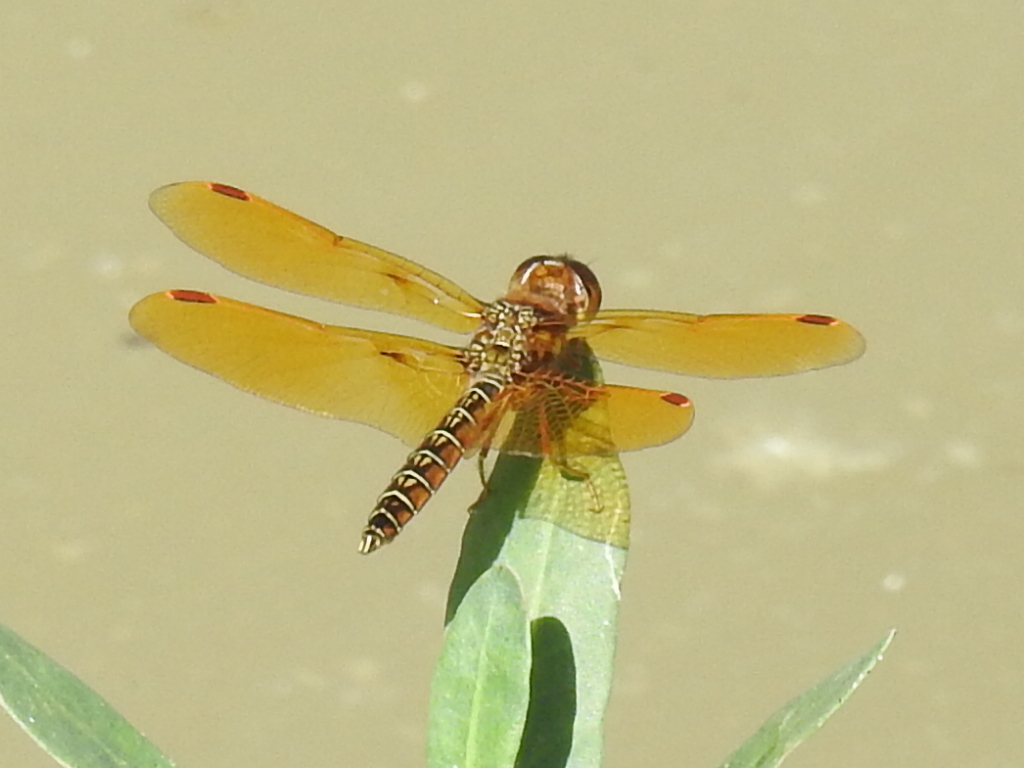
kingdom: Animalia
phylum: Arthropoda
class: Insecta
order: Odonata
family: Libellulidae
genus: Perithemis
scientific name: Perithemis tenera
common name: Eastern amberwing
